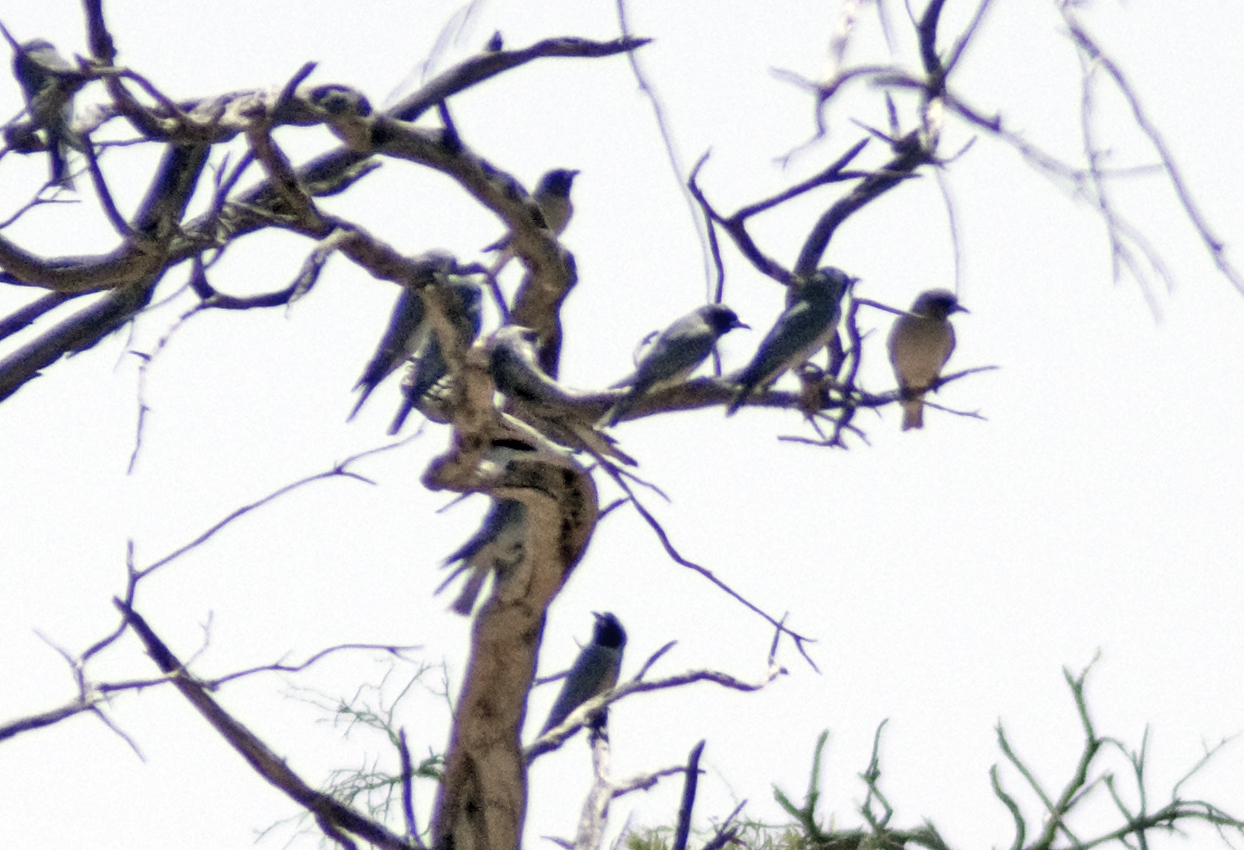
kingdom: Animalia
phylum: Chordata
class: Aves
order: Passeriformes
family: Artamidae
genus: Artamus
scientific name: Artamus personatus
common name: Masked woodswallow
